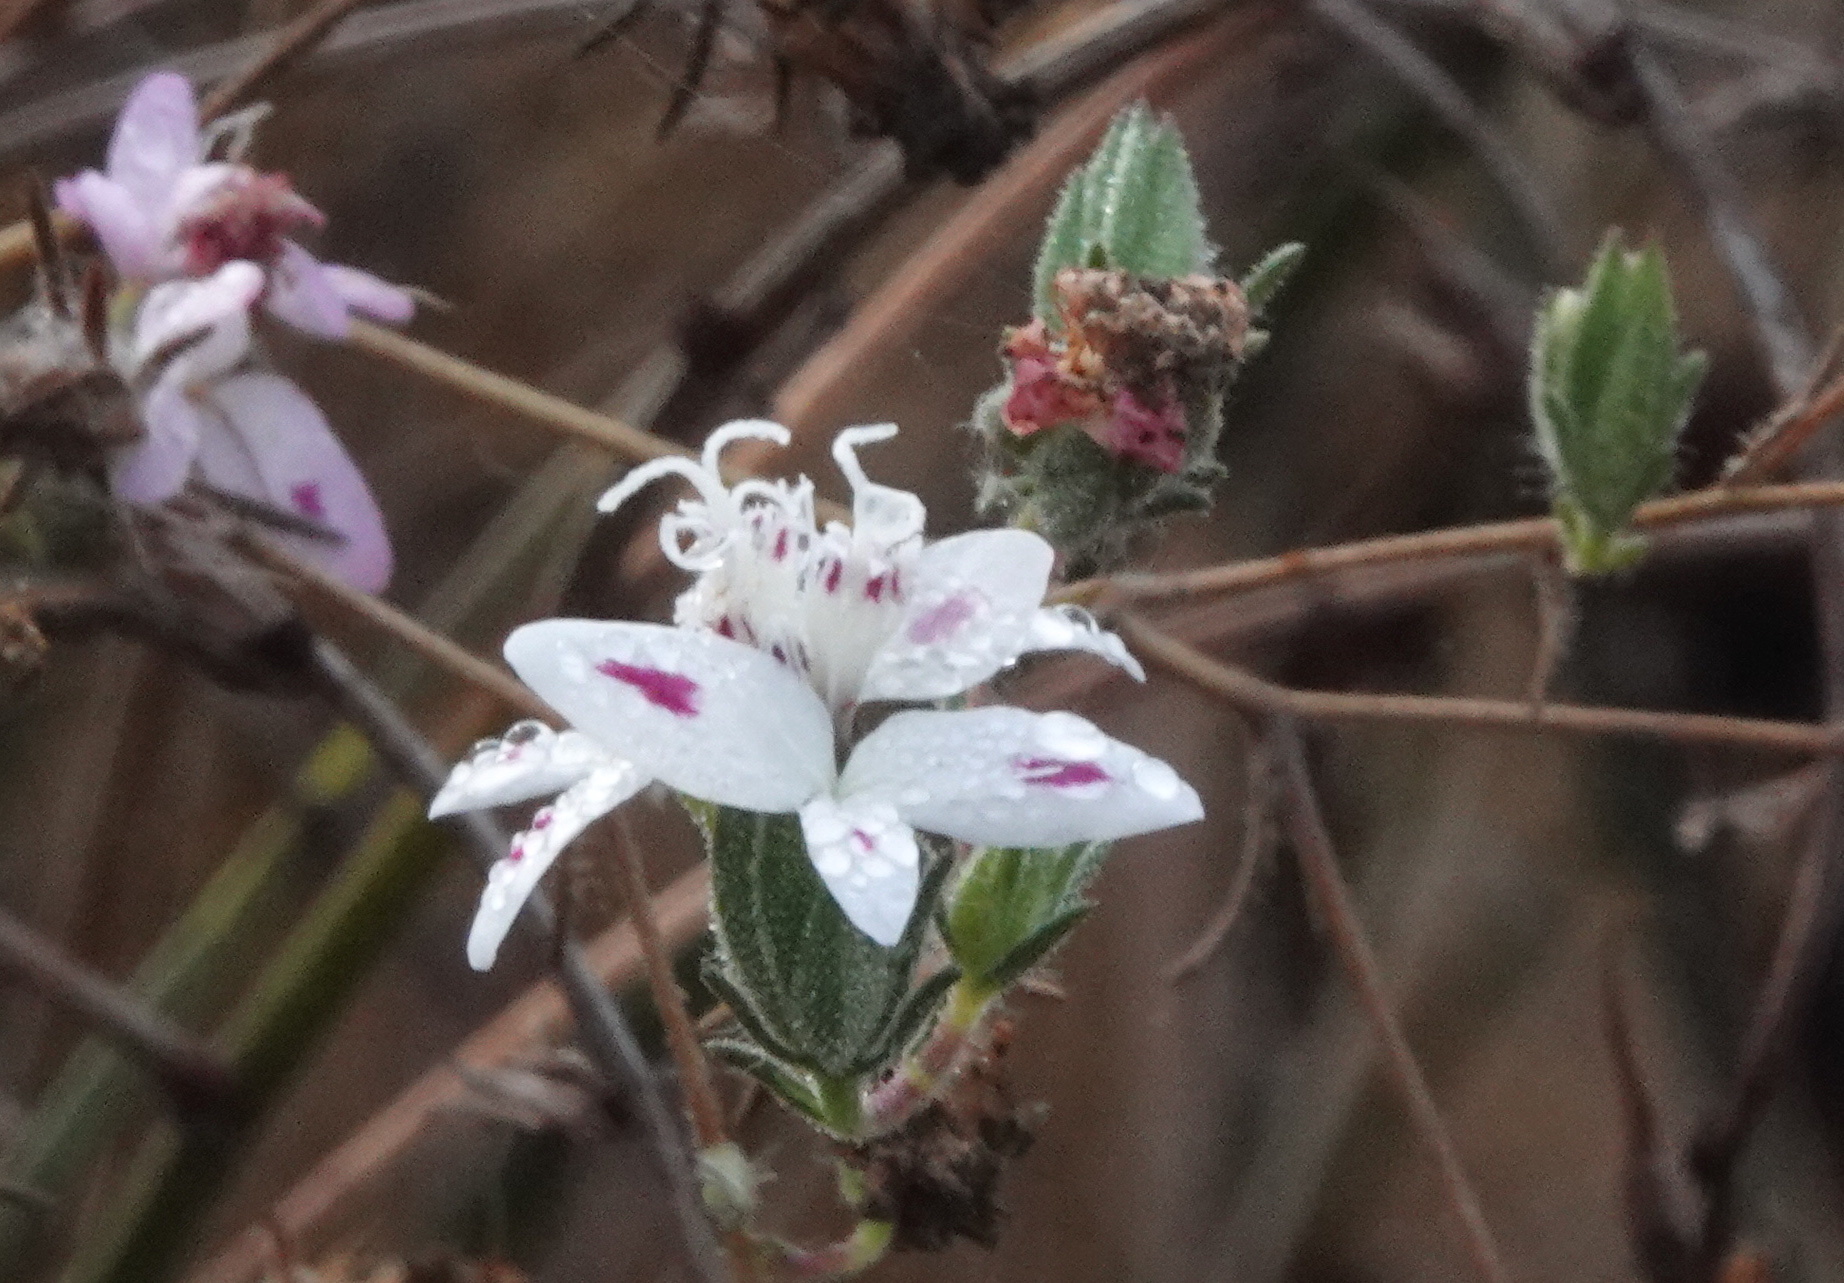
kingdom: Plantae
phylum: Tracheophyta
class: Magnoliopsida
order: Asterales
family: Asteraceae
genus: Osmadenia
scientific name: Osmadenia tenella
